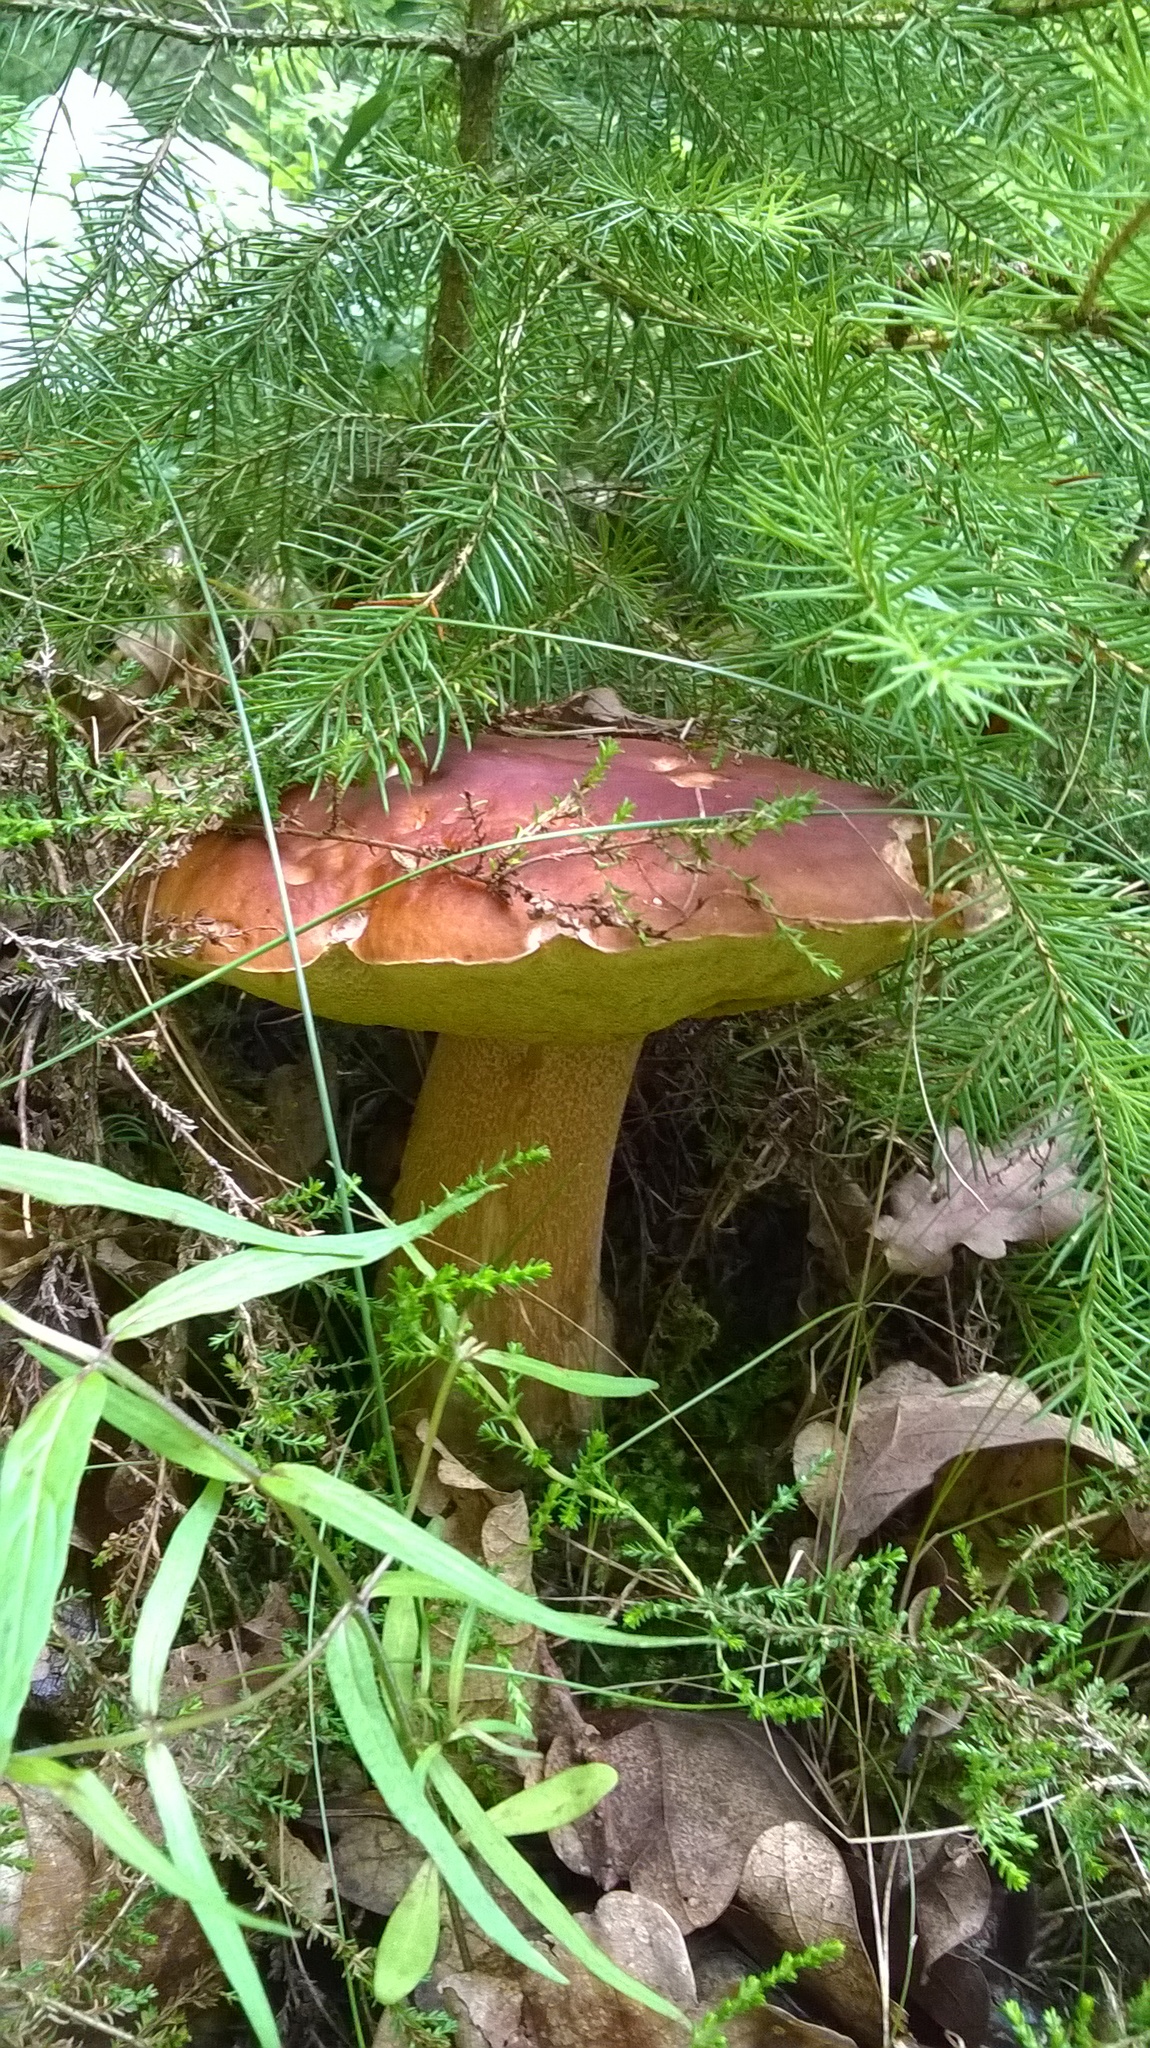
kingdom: Fungi
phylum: Basidiomycota
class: Agaricomycetes
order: Boletales
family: Boletaceae
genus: Boletus
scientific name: Boletus reticulatus
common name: Summer bolete
